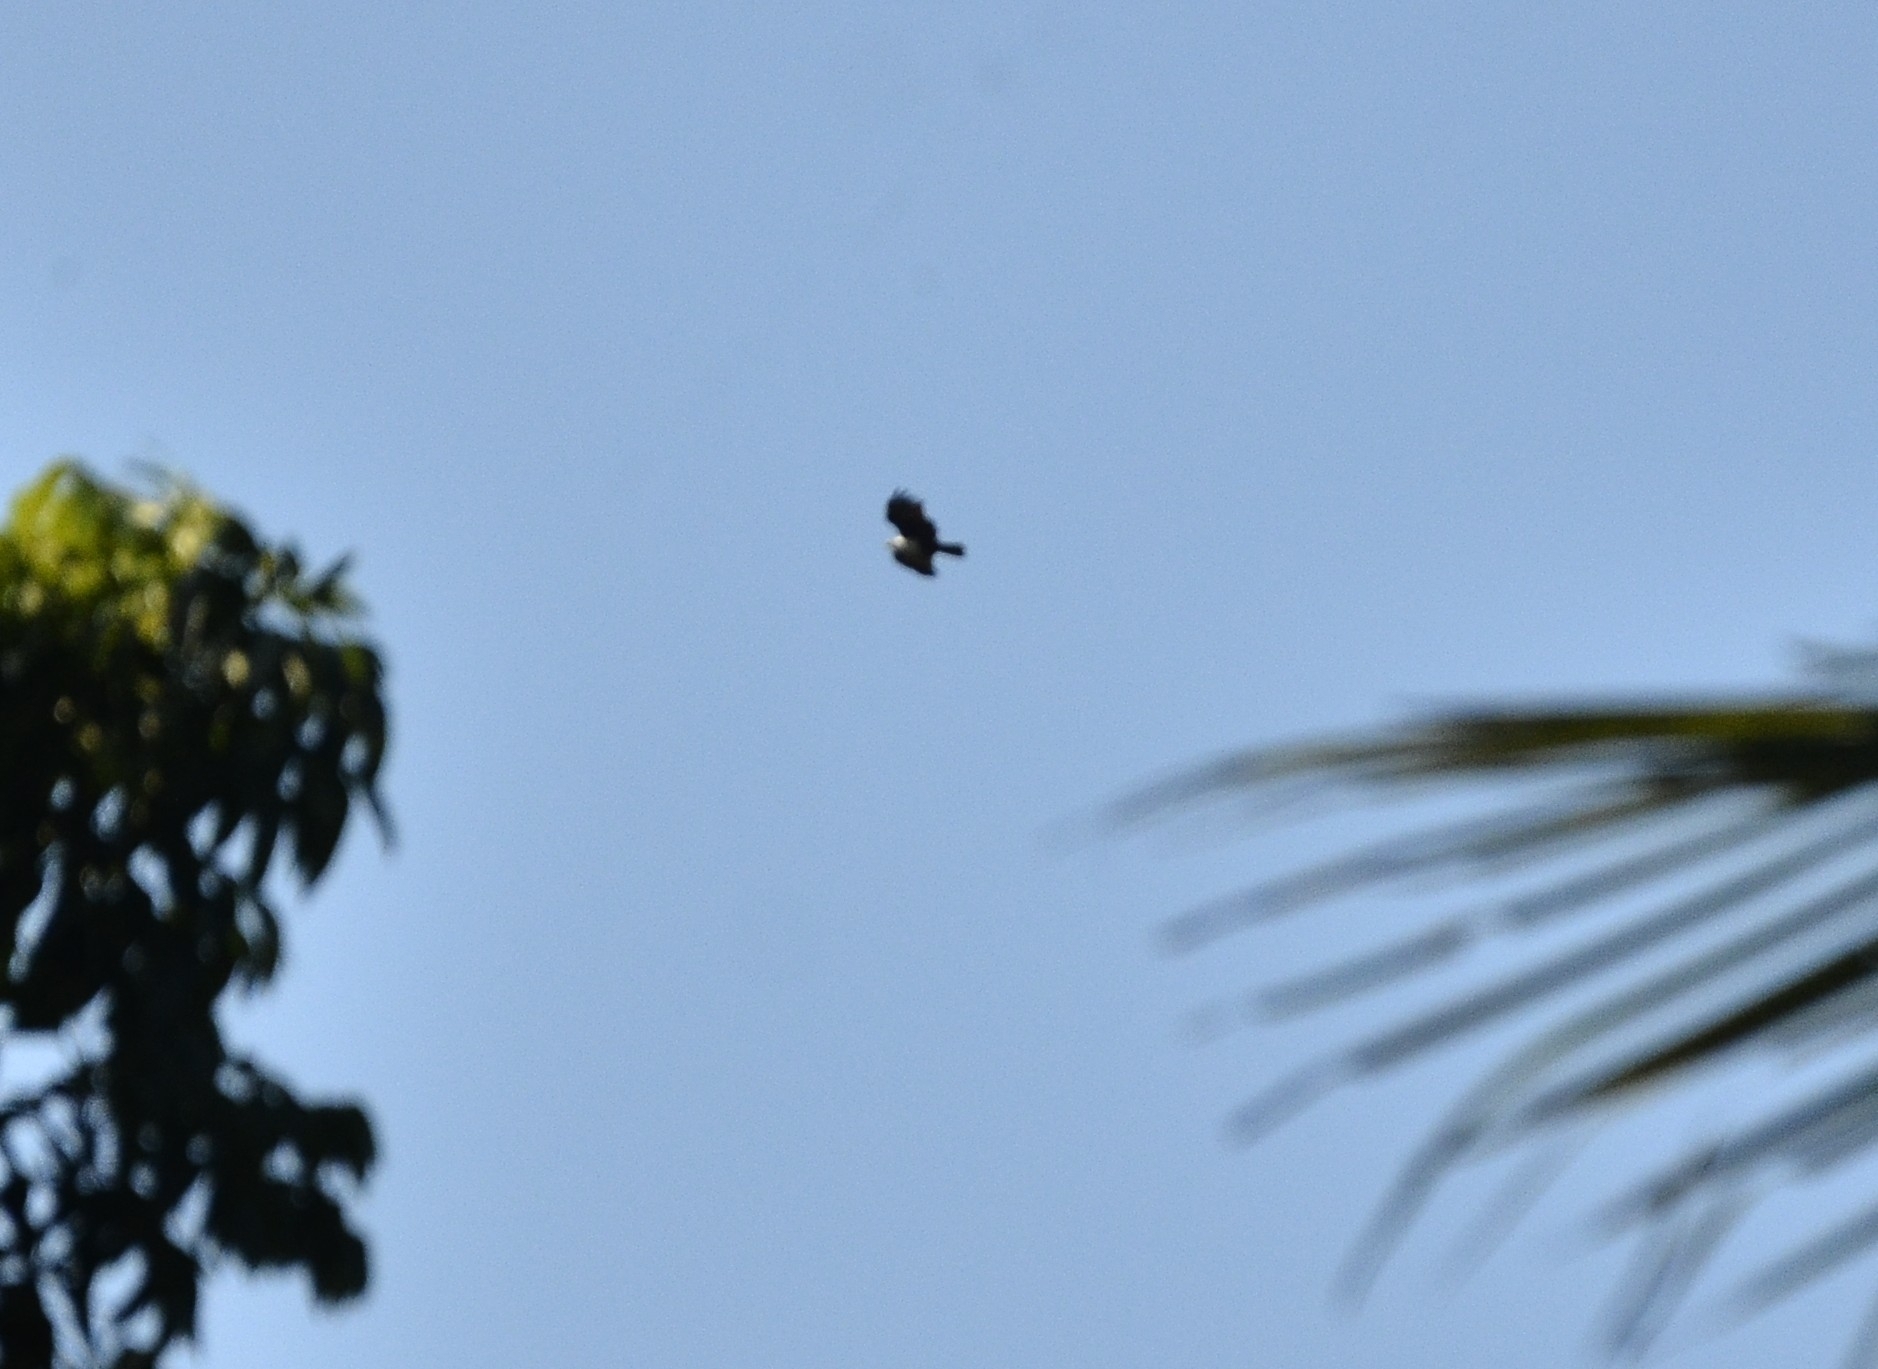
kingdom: Animalia
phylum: Chordata
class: Aves
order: Accipitriformes
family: Accipitridae
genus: Haliastur
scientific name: Haliastur indus
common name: Brahminy kite
